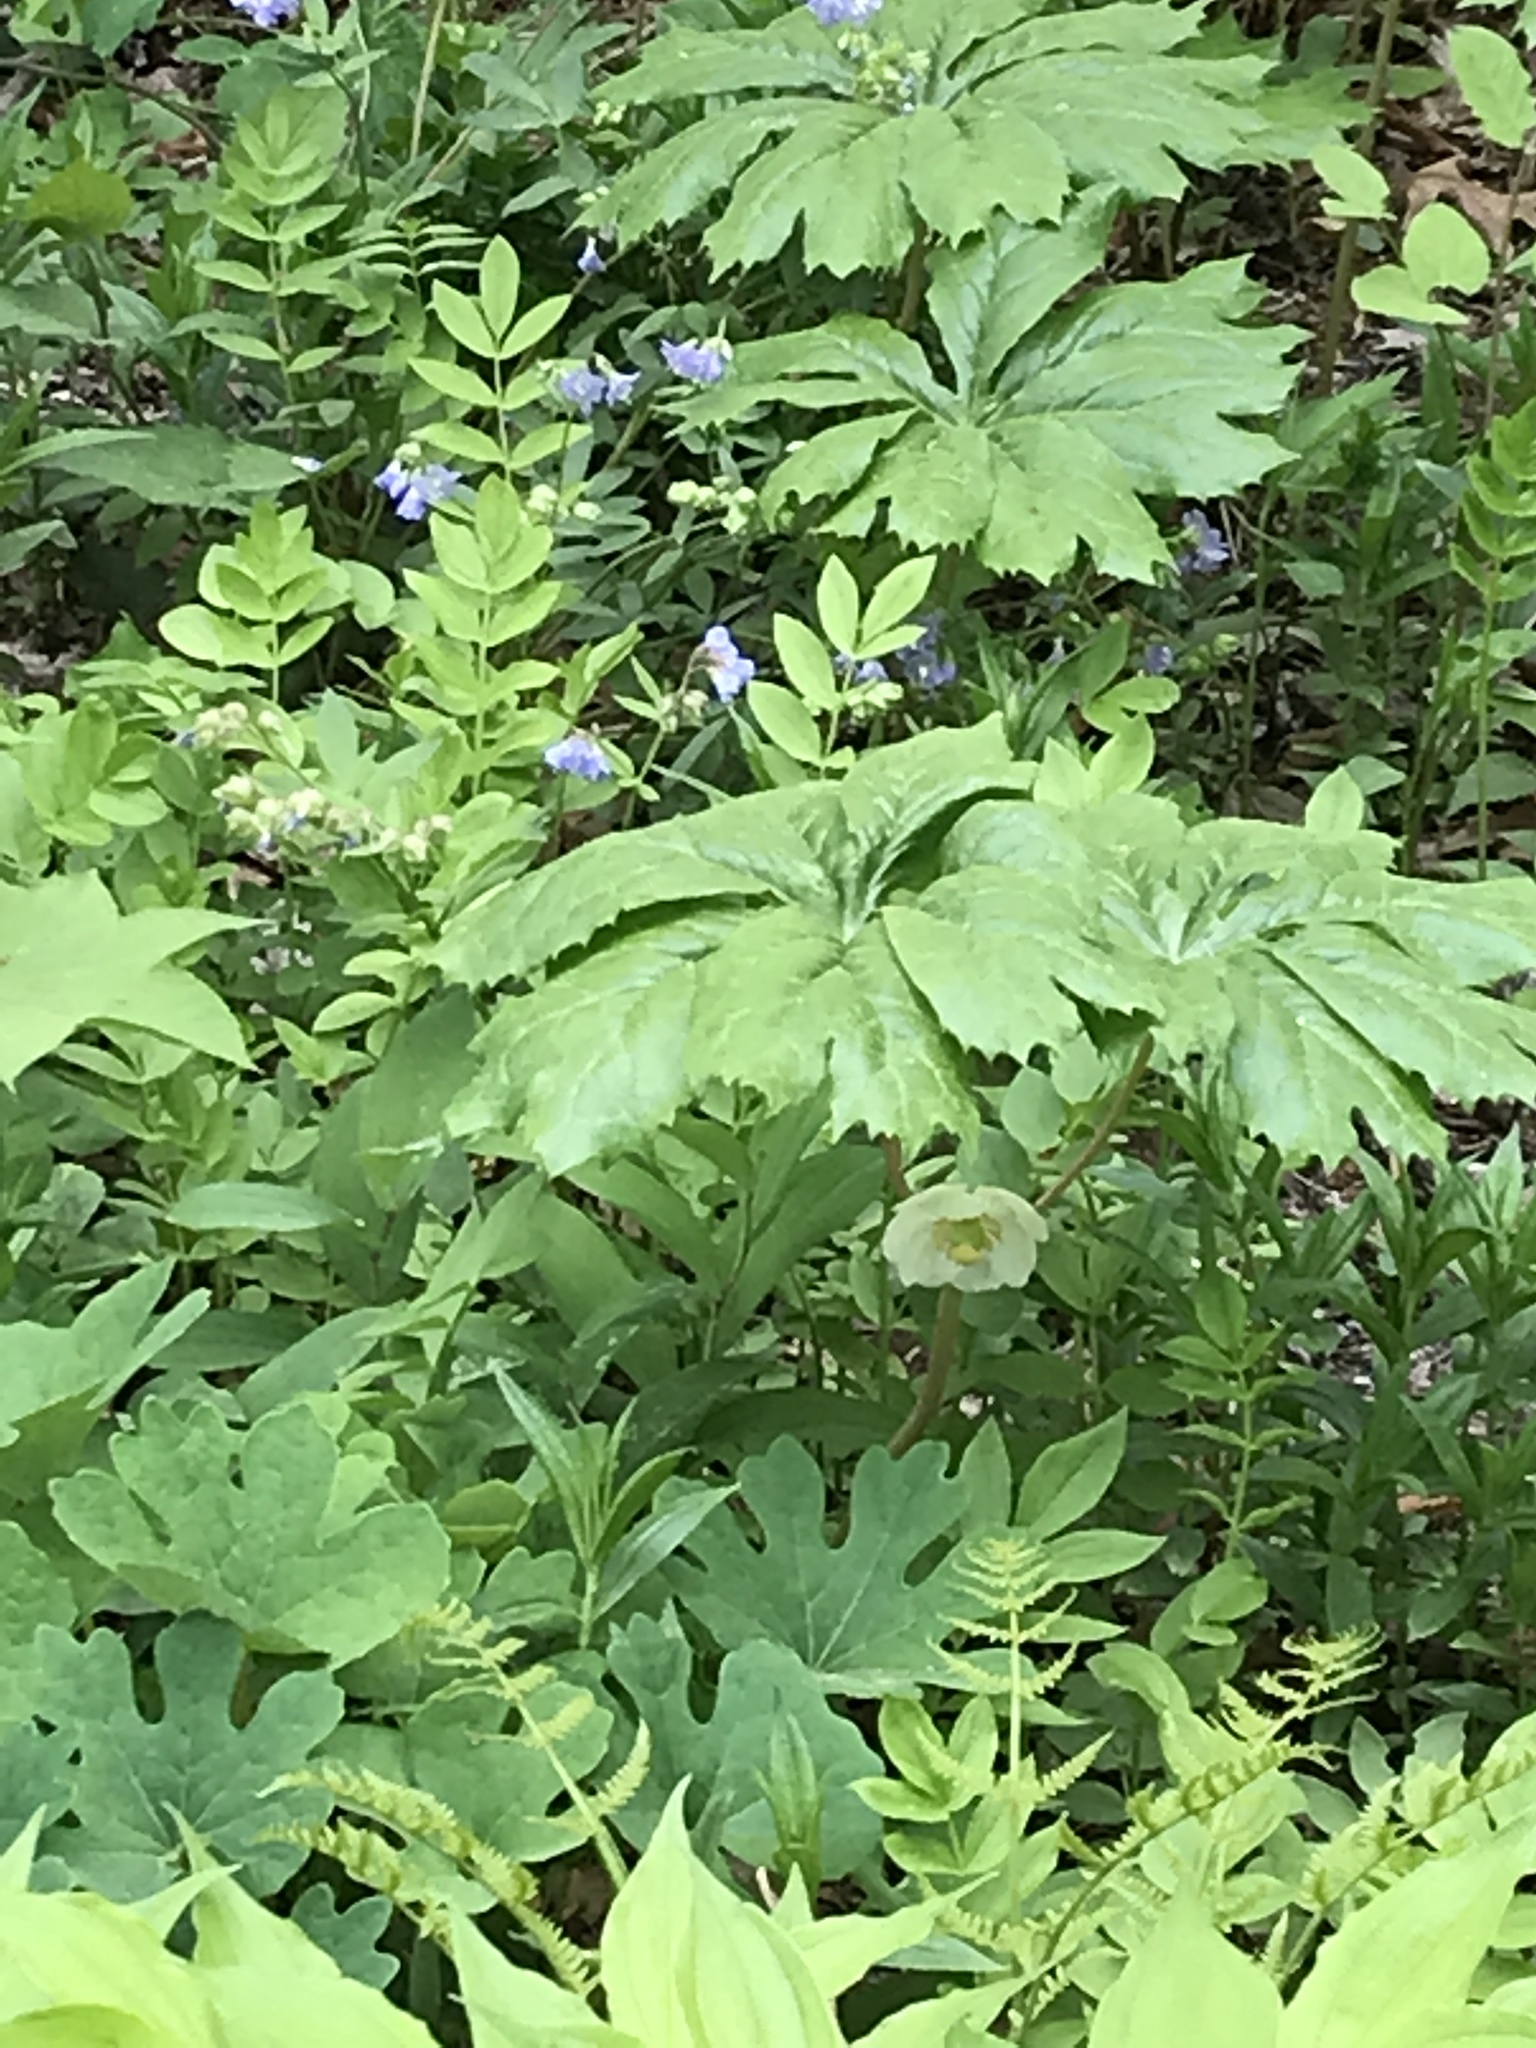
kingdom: Plantae
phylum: Tracheophyta
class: Magnoliopsida
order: Ranunculales
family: Berberidaceae
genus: Podophyllum
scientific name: Podophyllum peltatum
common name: Wild mandrake
